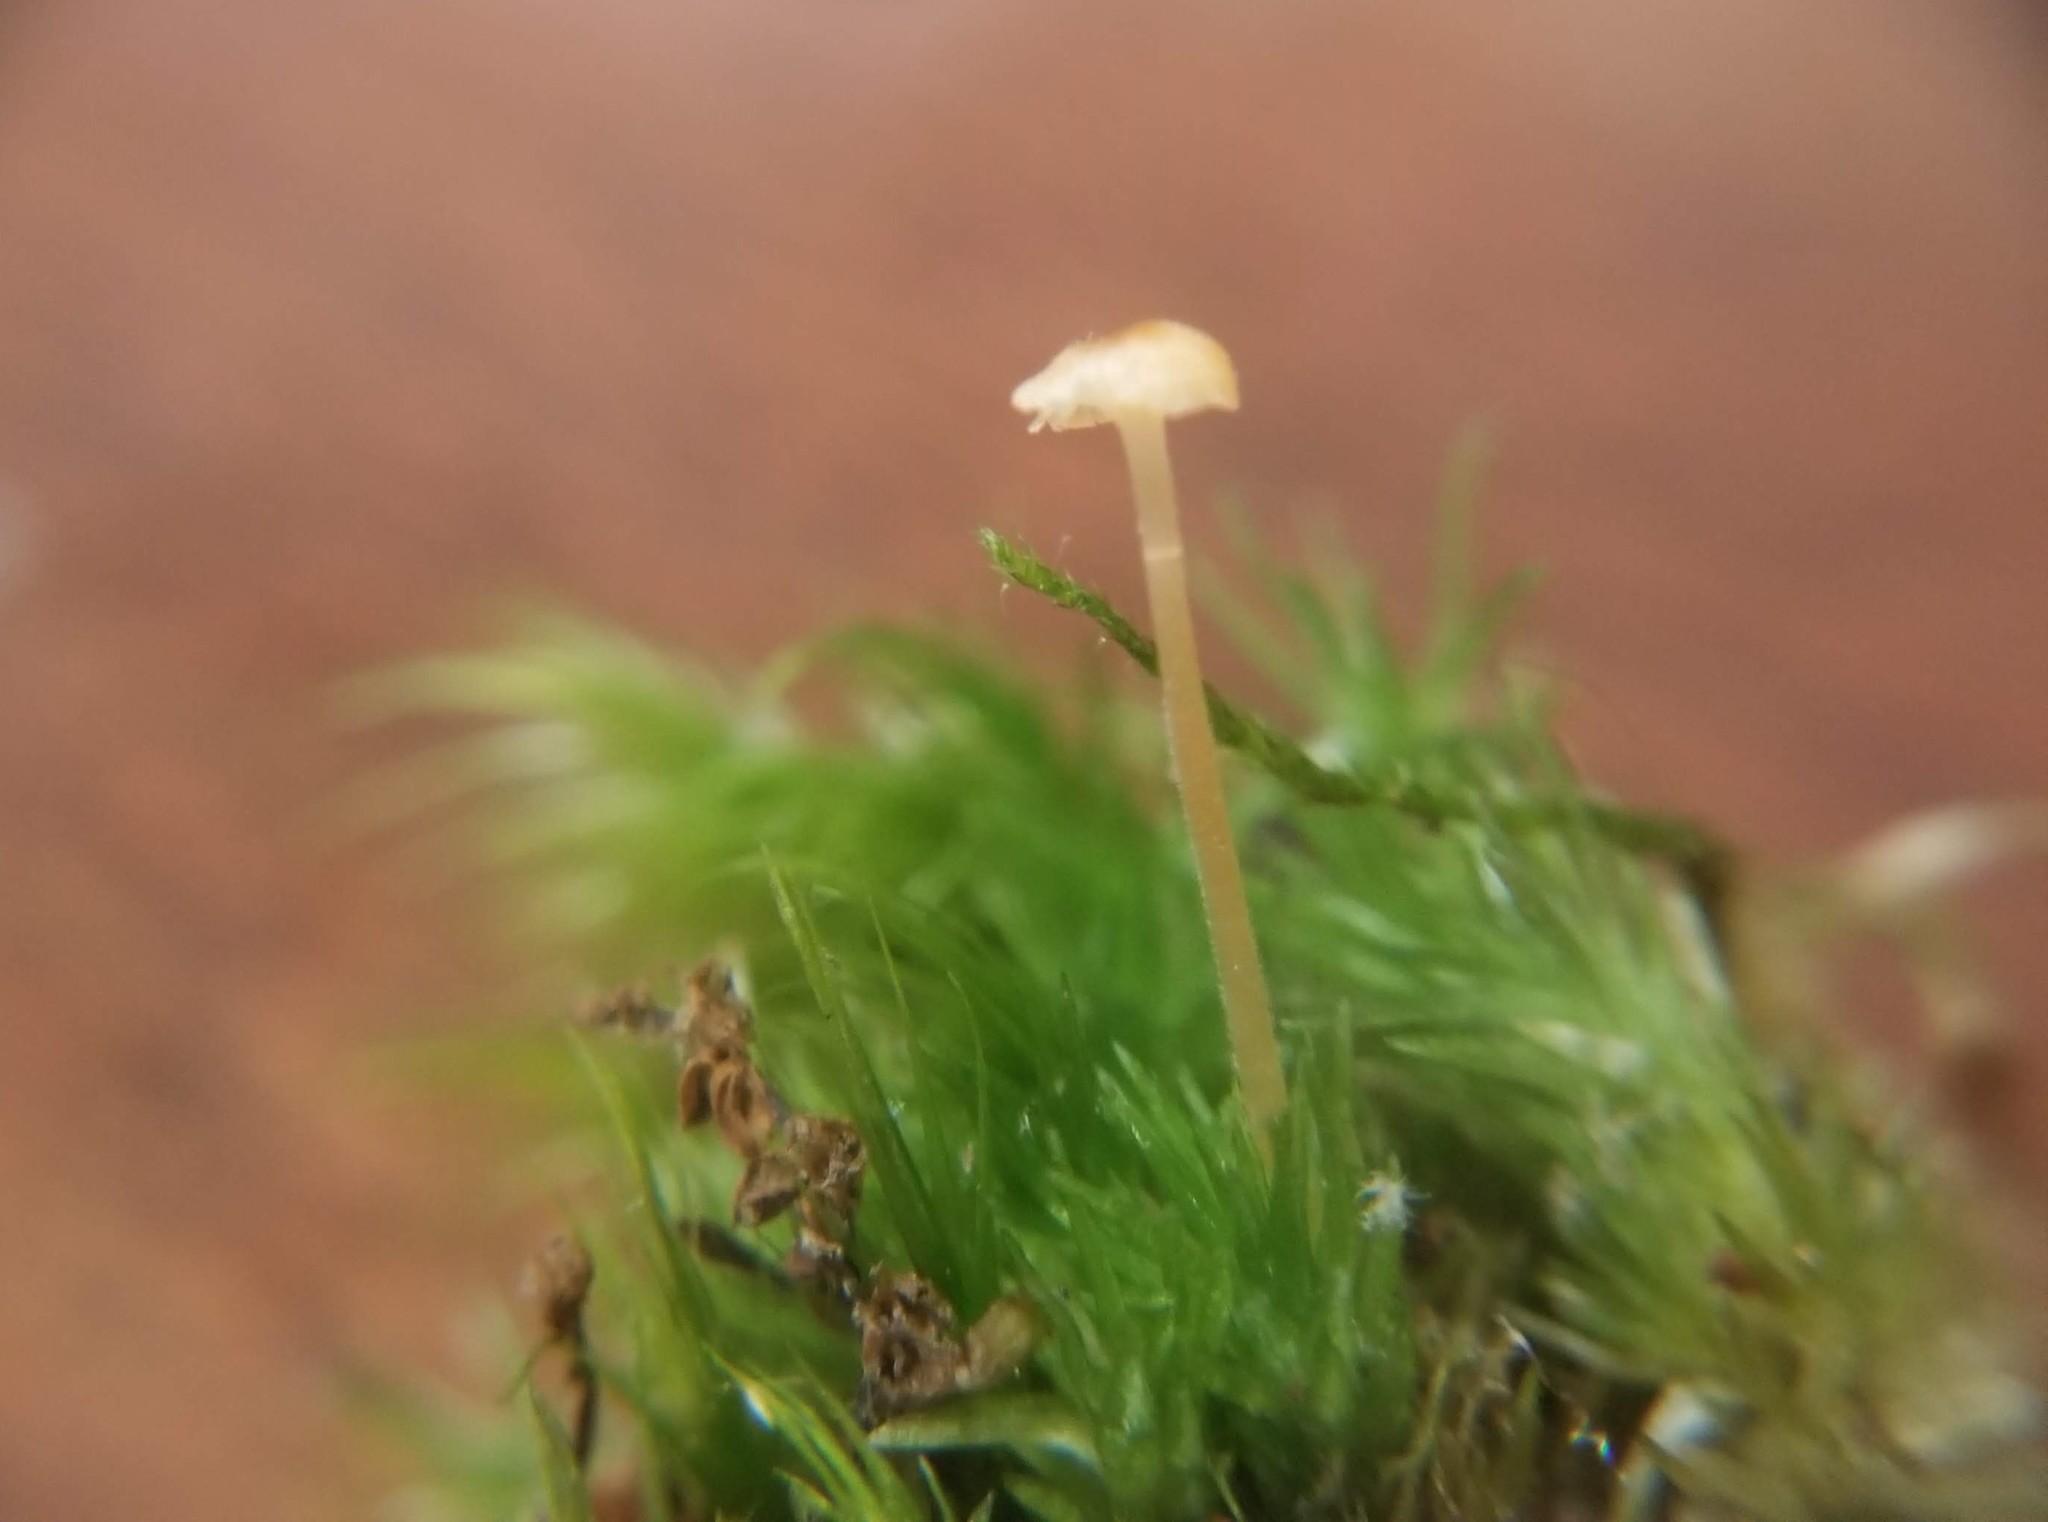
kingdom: Fungi
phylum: Basidiomycota
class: Agaricomycetes
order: Hymenochaetales
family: Rickenellaceae
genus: Rickenella
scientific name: Rickenella fibula
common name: Orange mosscap
